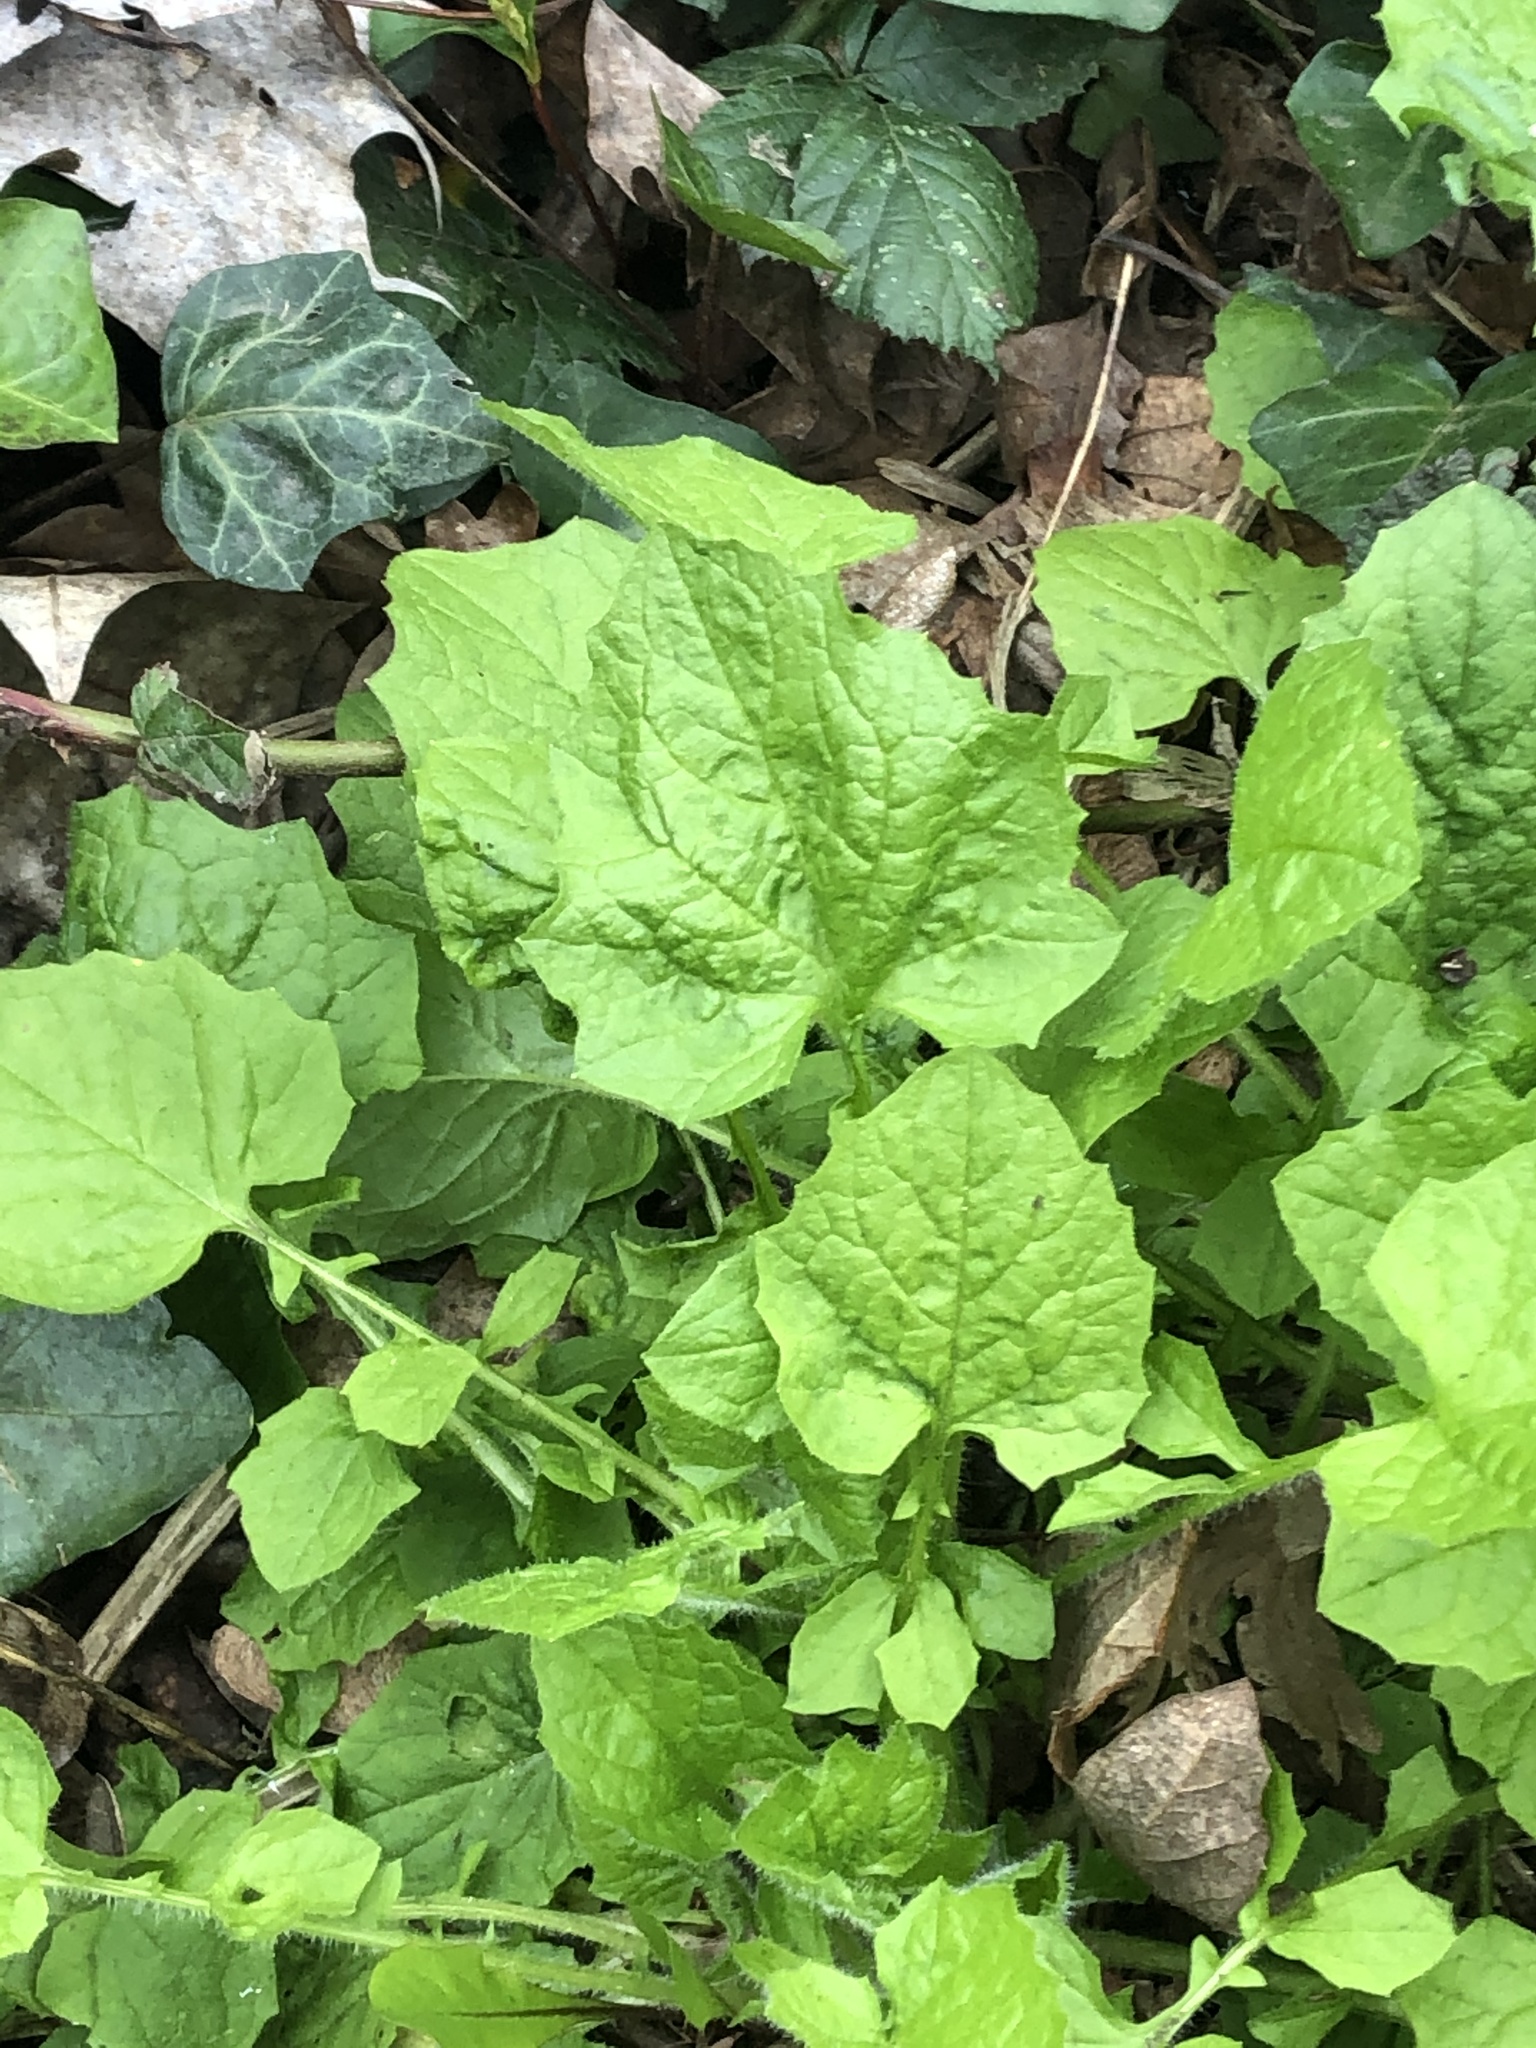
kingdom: Plantae
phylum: Tracheophyta
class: Magnoliopsida
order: Asterales
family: Asteraceae
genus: Lapsana
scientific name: Lapsana communis
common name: Nipplewort
